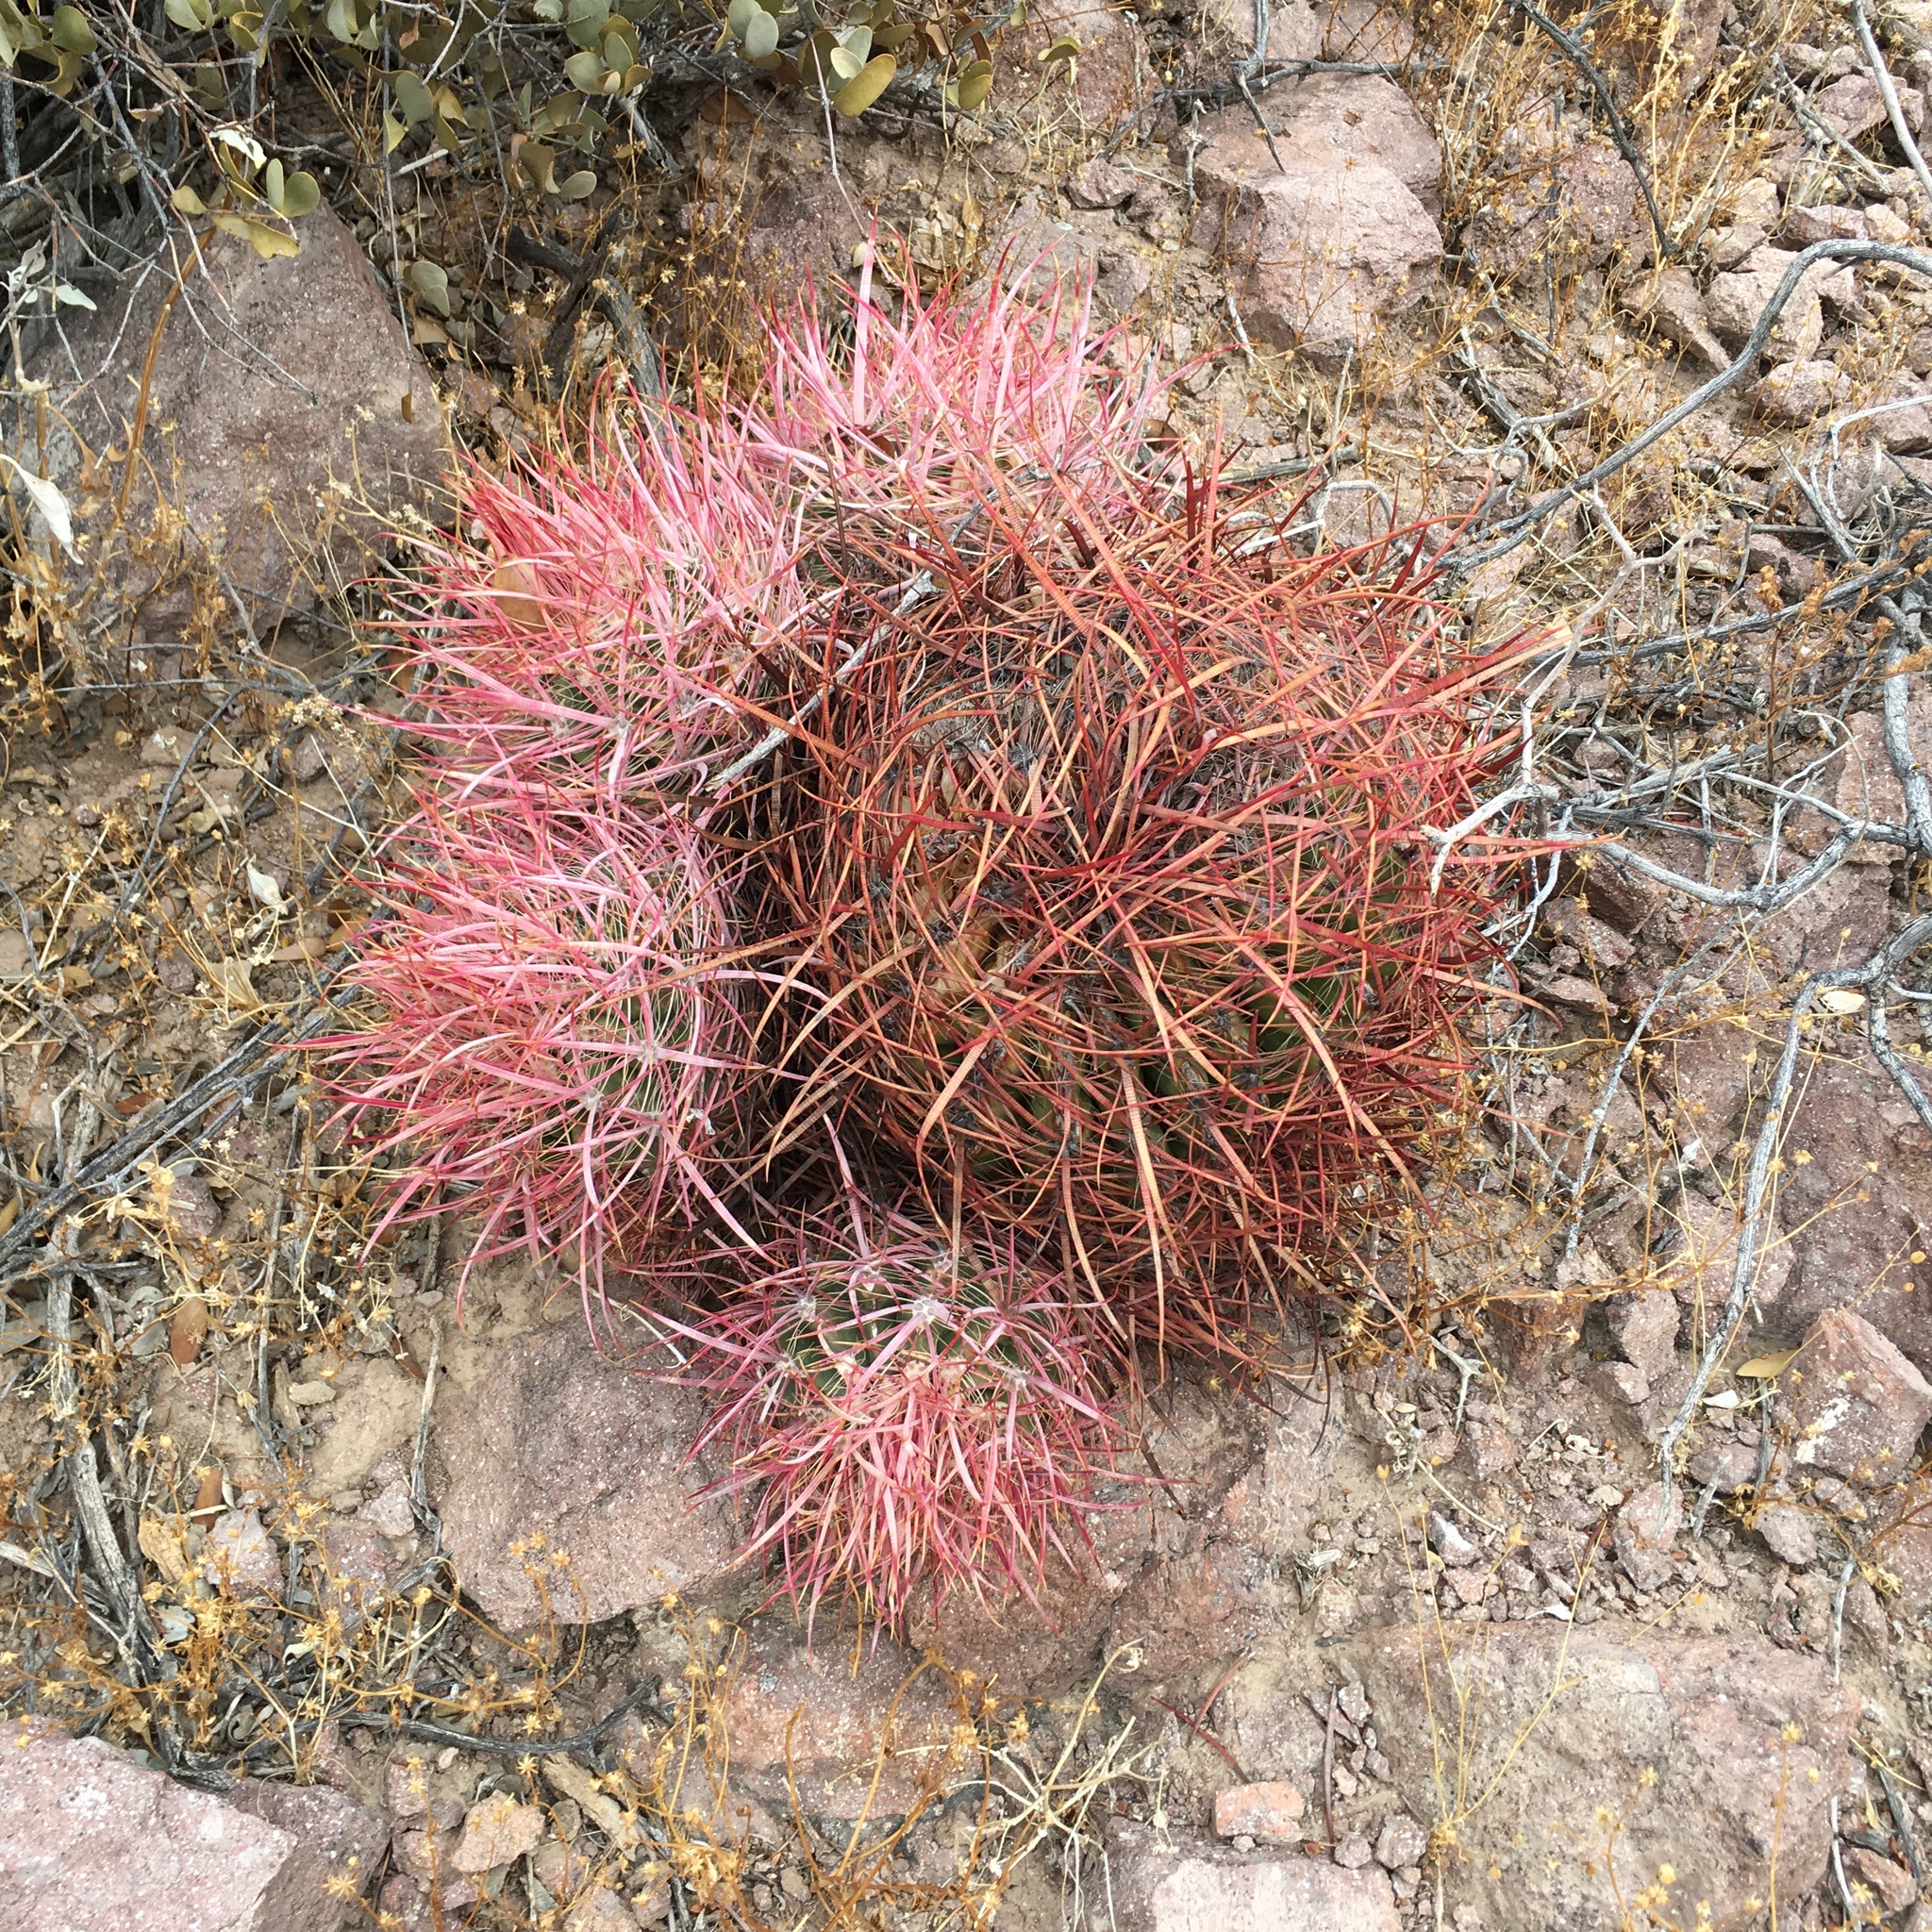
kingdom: Plantae
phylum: Tracheophyta
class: Magnoliopsida
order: Caryophyllales
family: Cactaceae
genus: Ferocactus
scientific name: Ferocactus cylindraceus
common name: California barrel cactus
